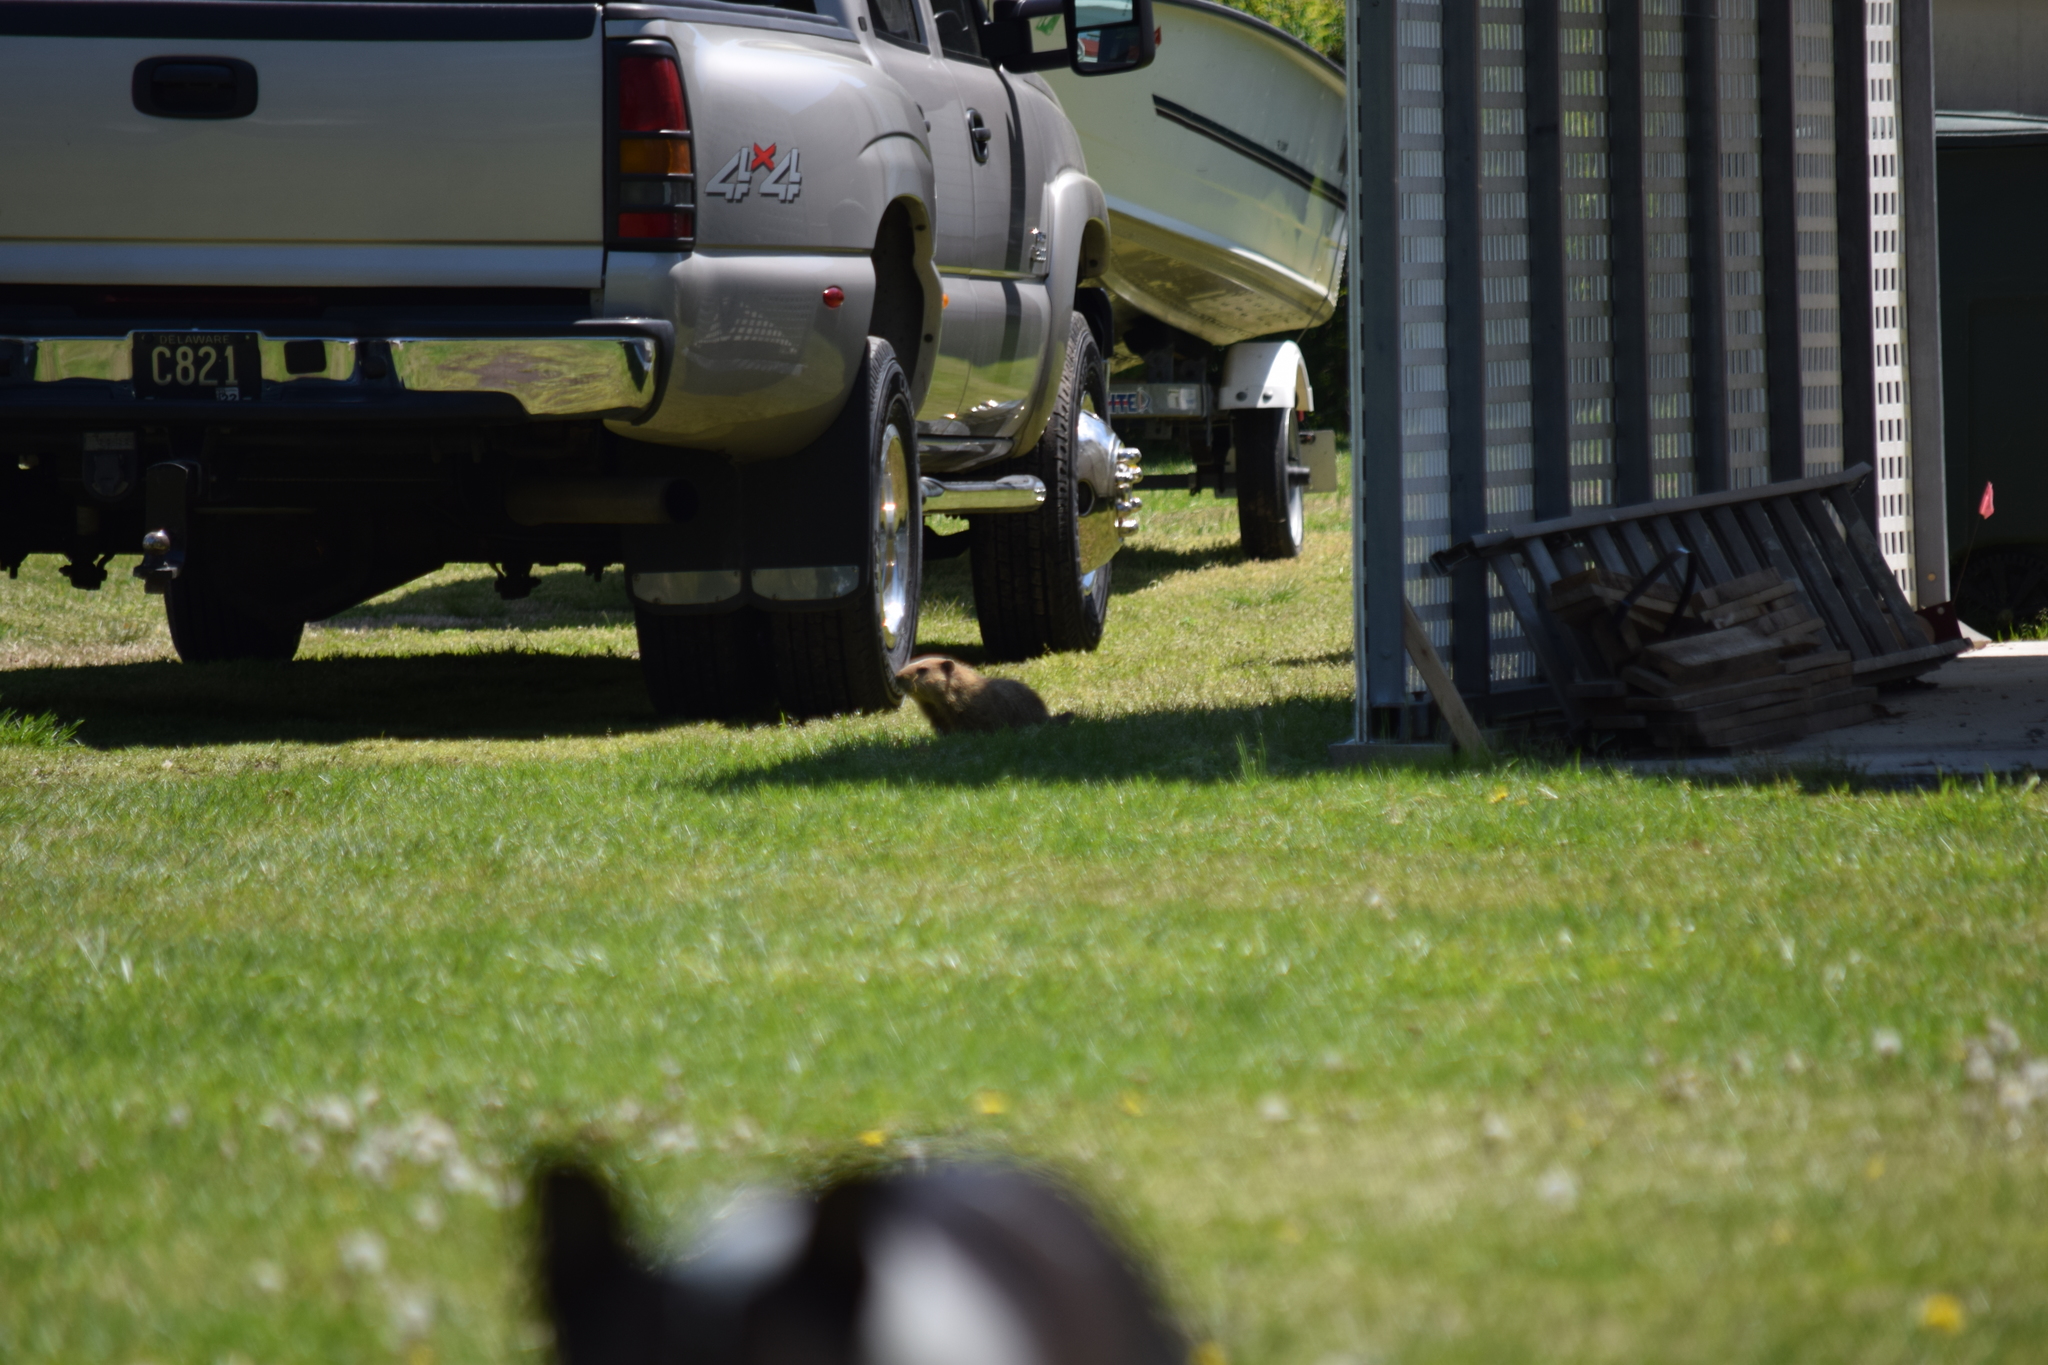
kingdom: Animalia
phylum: Chordata
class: Mammalia
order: Rodentia
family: Sciuridae
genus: Marmota
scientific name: Marmota monax
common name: Groundhog
